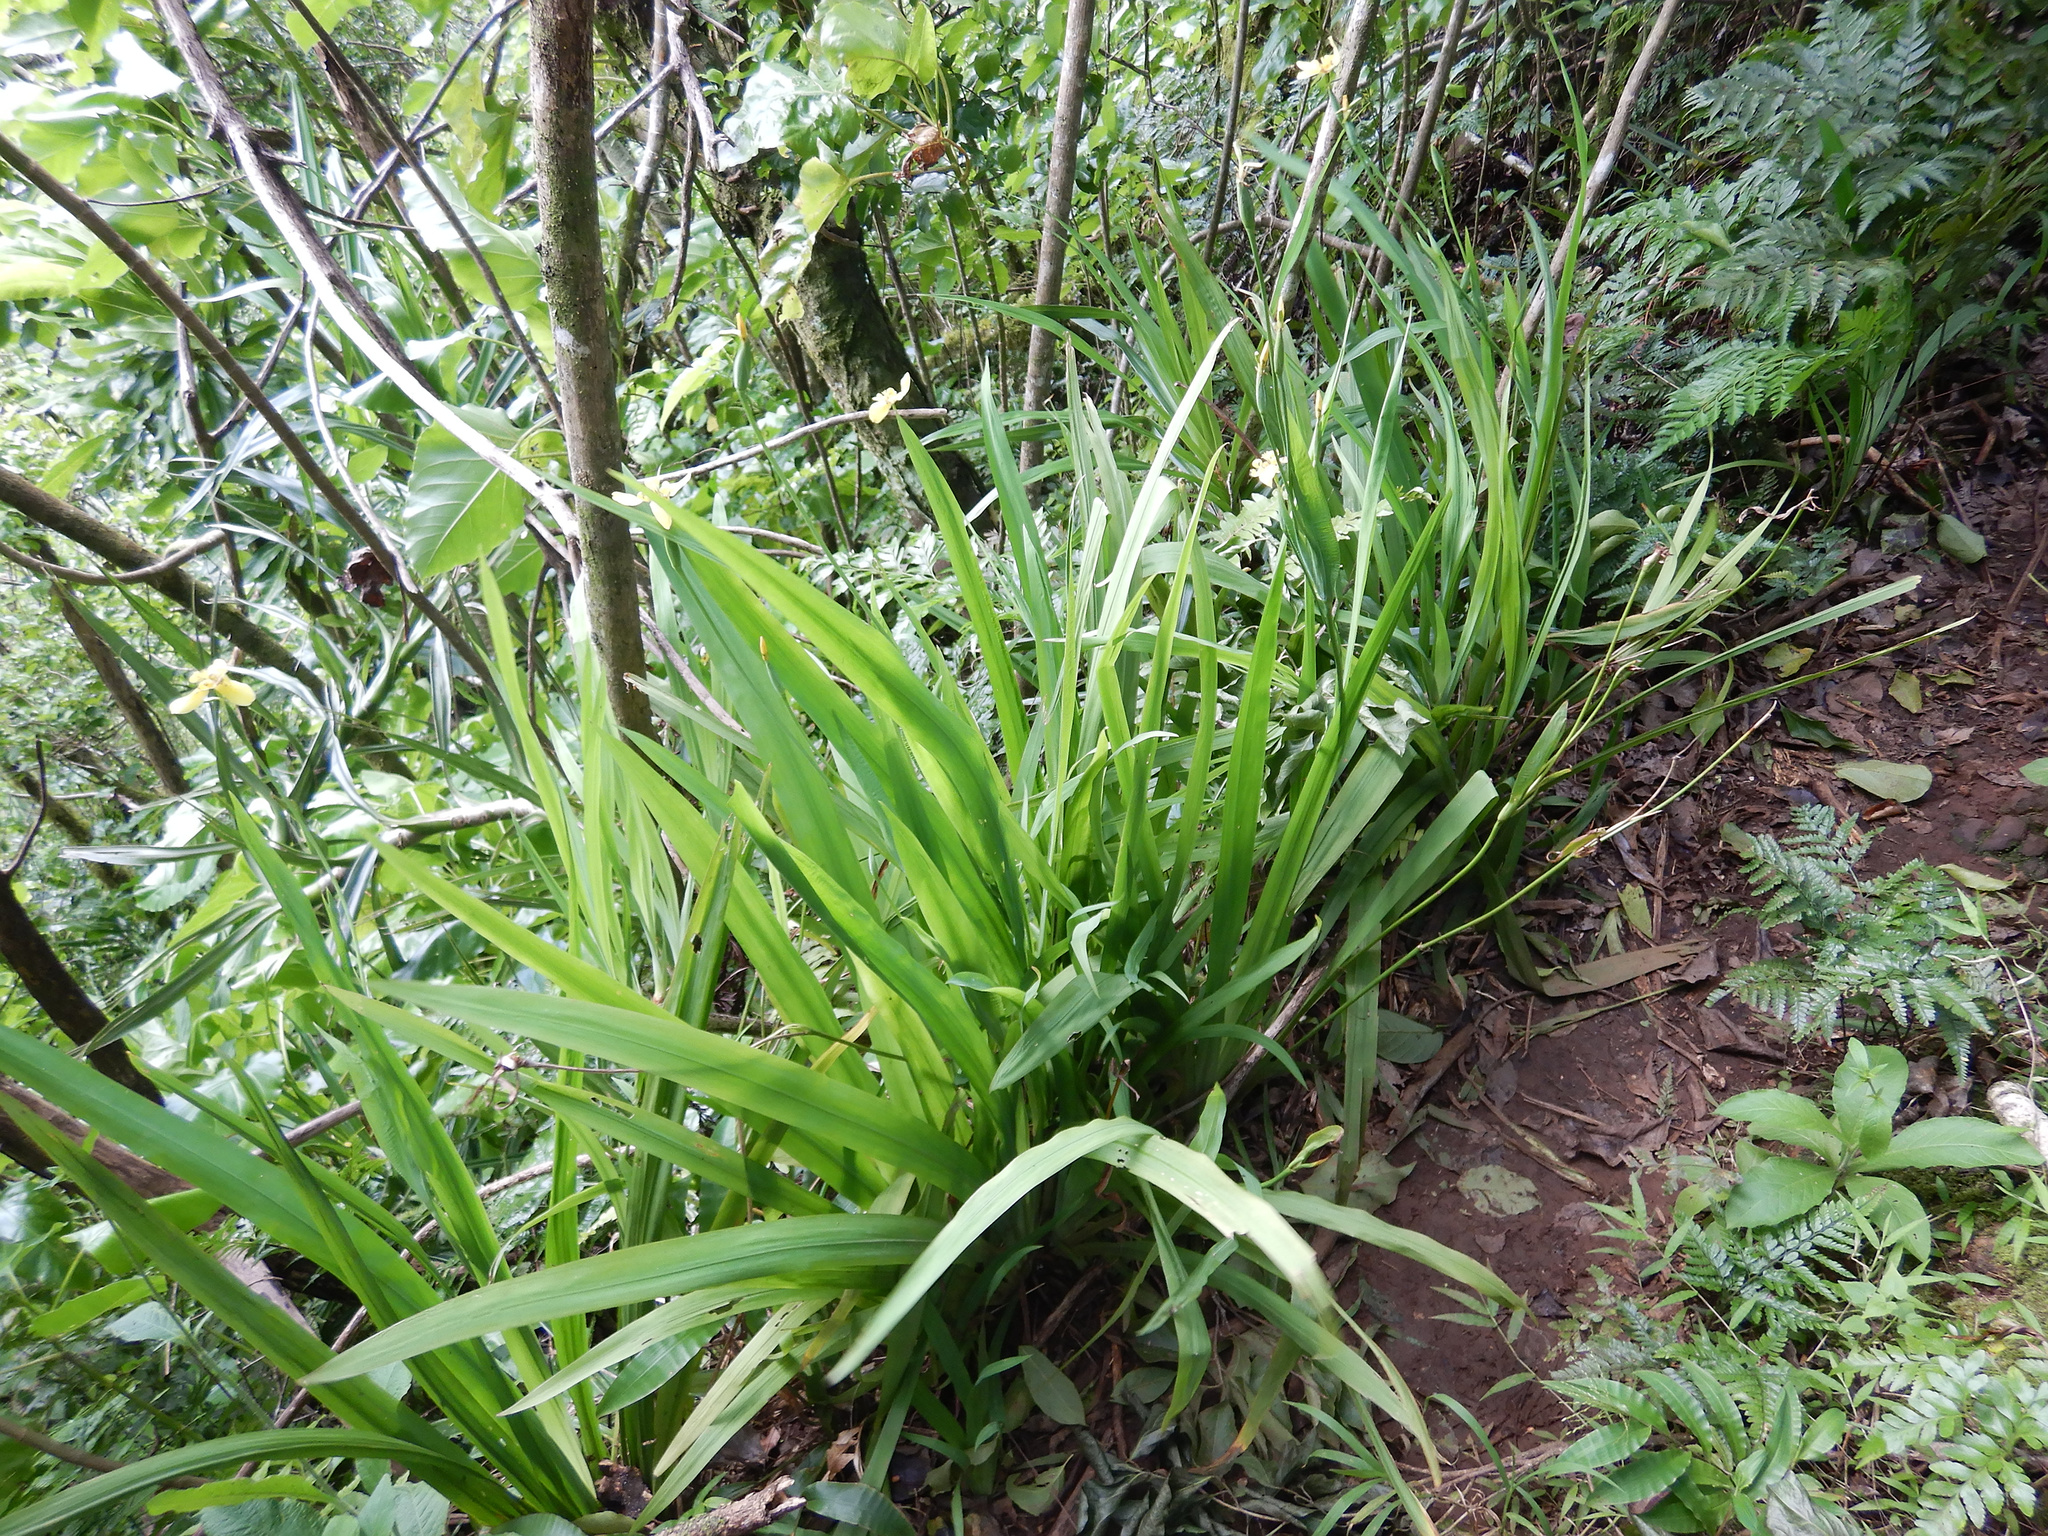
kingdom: Plantae
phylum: Tracheophyta
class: Liliopsida
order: Asparagales
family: Iridaceae
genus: Trimezia
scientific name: Trimezia steyermarkii
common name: Trimezia
